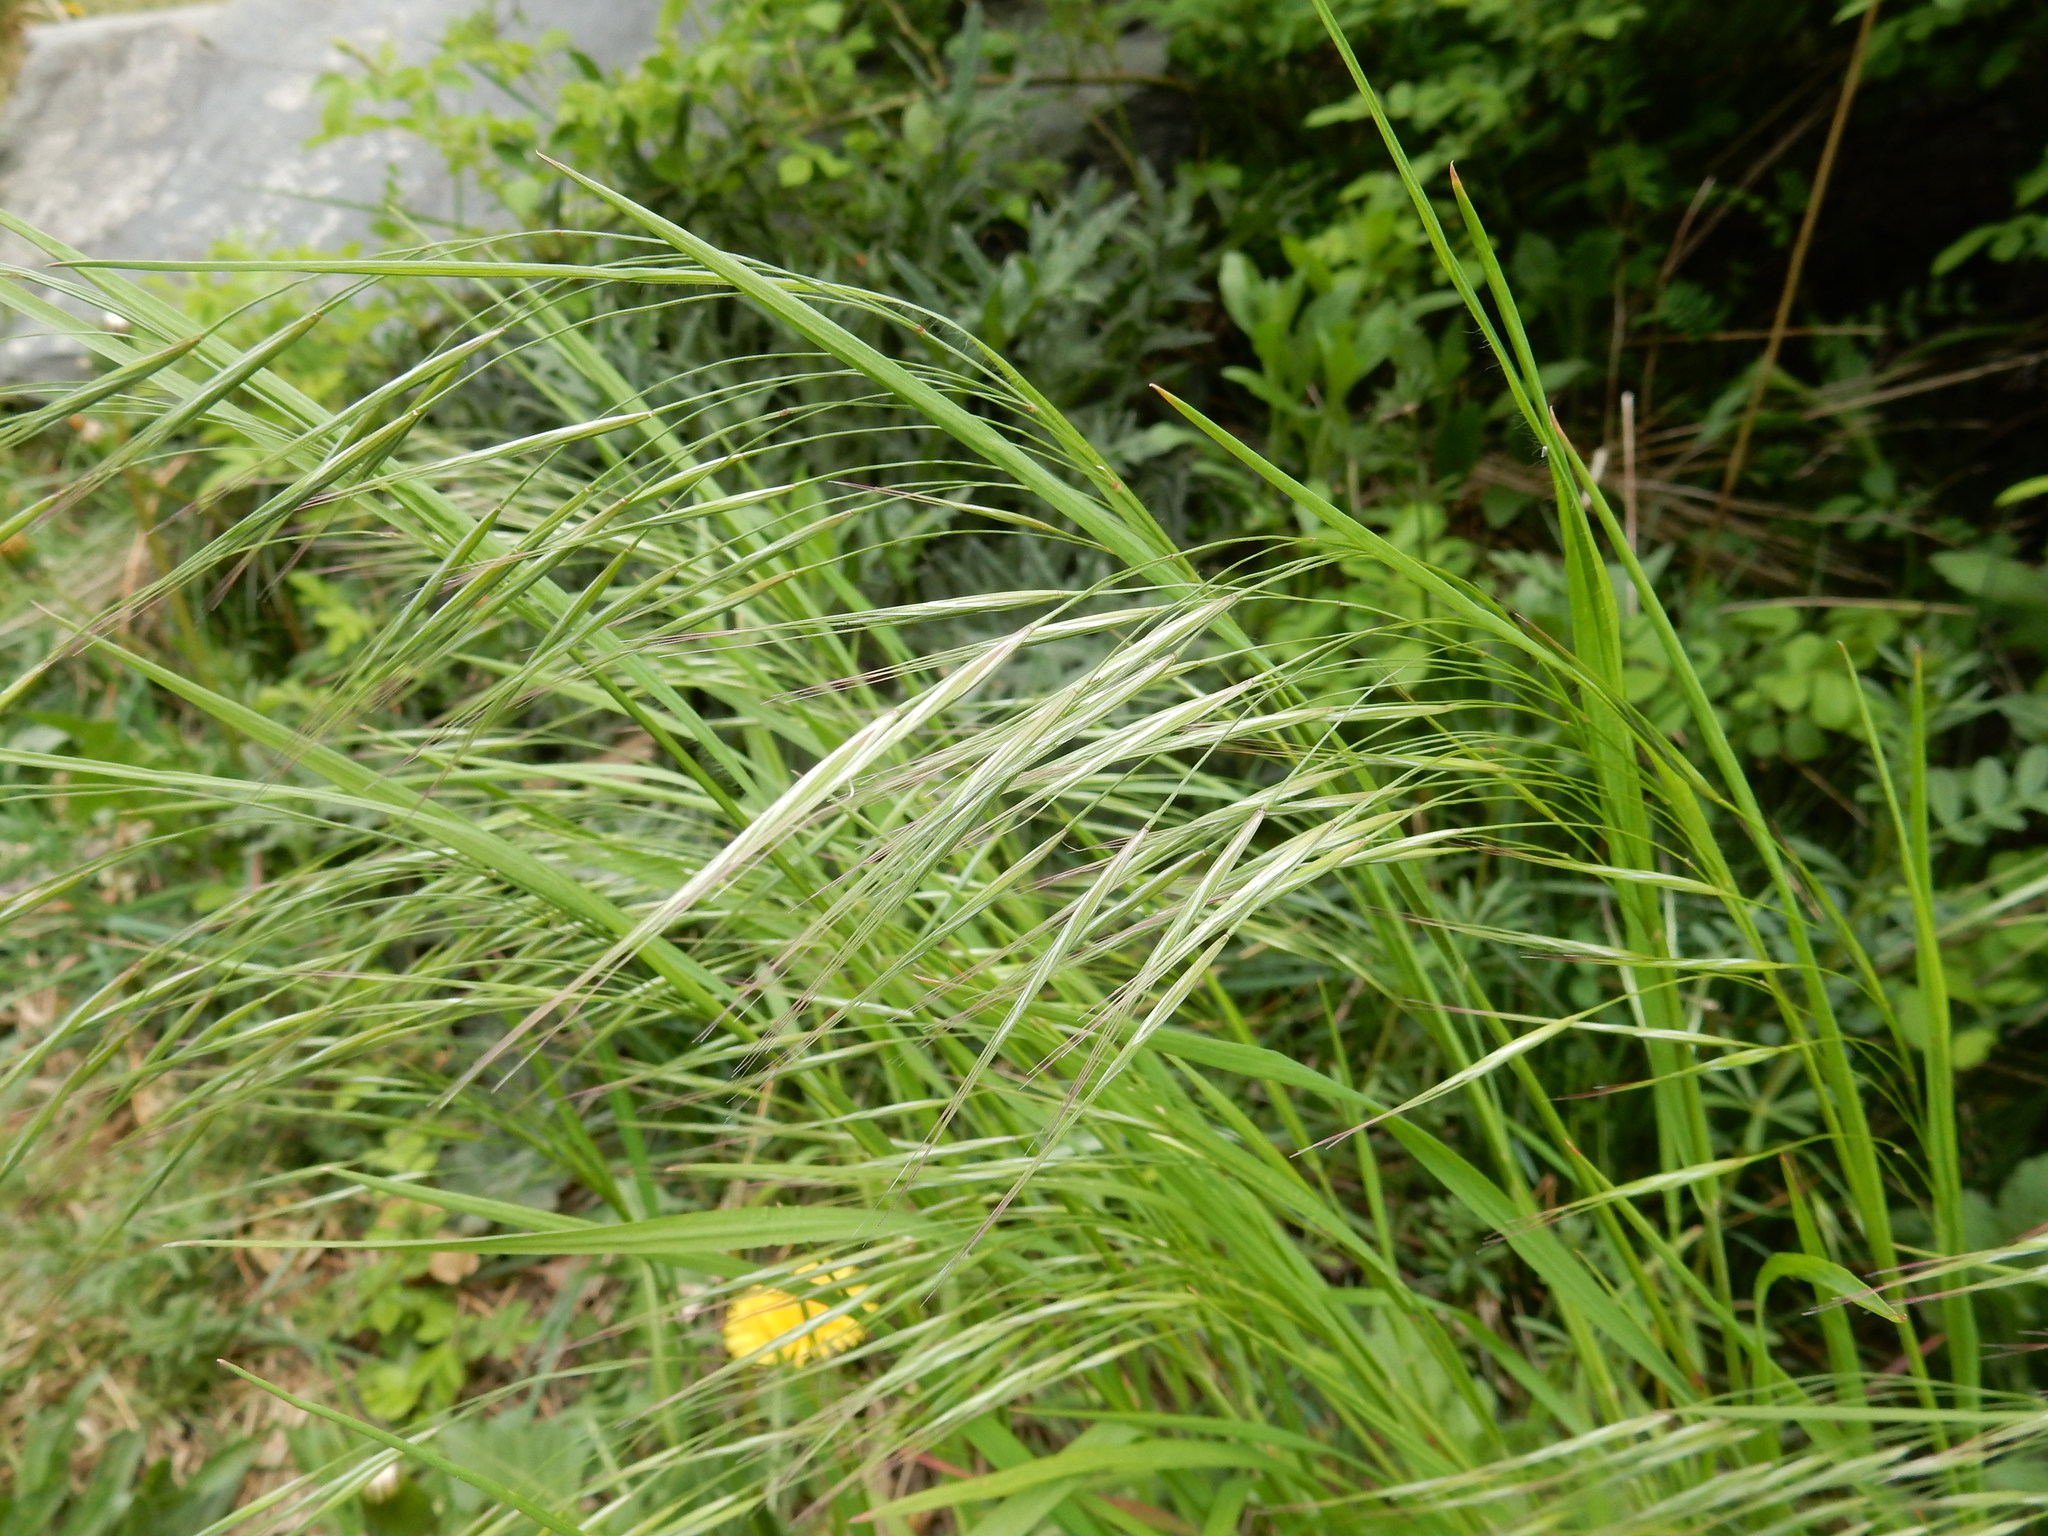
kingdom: Plantae
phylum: Tracheophyta
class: Liliopsida
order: Poales
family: Poaceae
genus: Bromus
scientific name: Bromus sterilis
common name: Poverty brome
